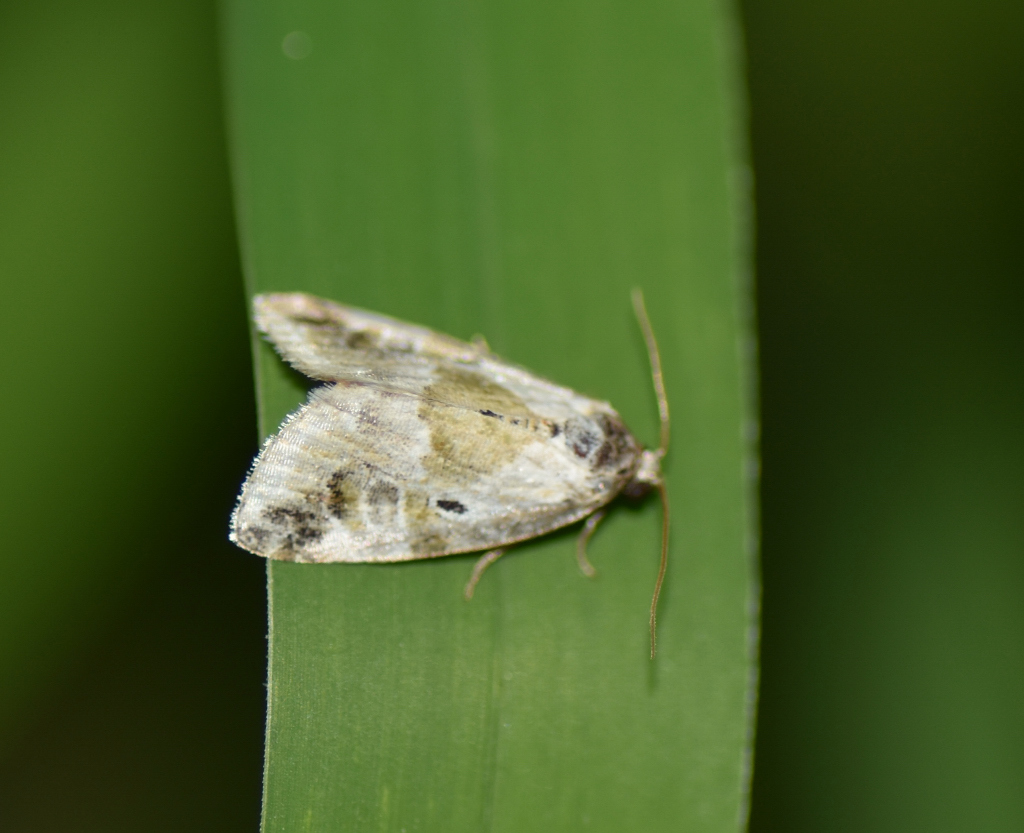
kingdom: Animalia
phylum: Arthropoda
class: Insecta
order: Lepidoptera
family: Noctuidae
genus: Maliattha
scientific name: Maliattha synochitis
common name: Black-dotted glyph
